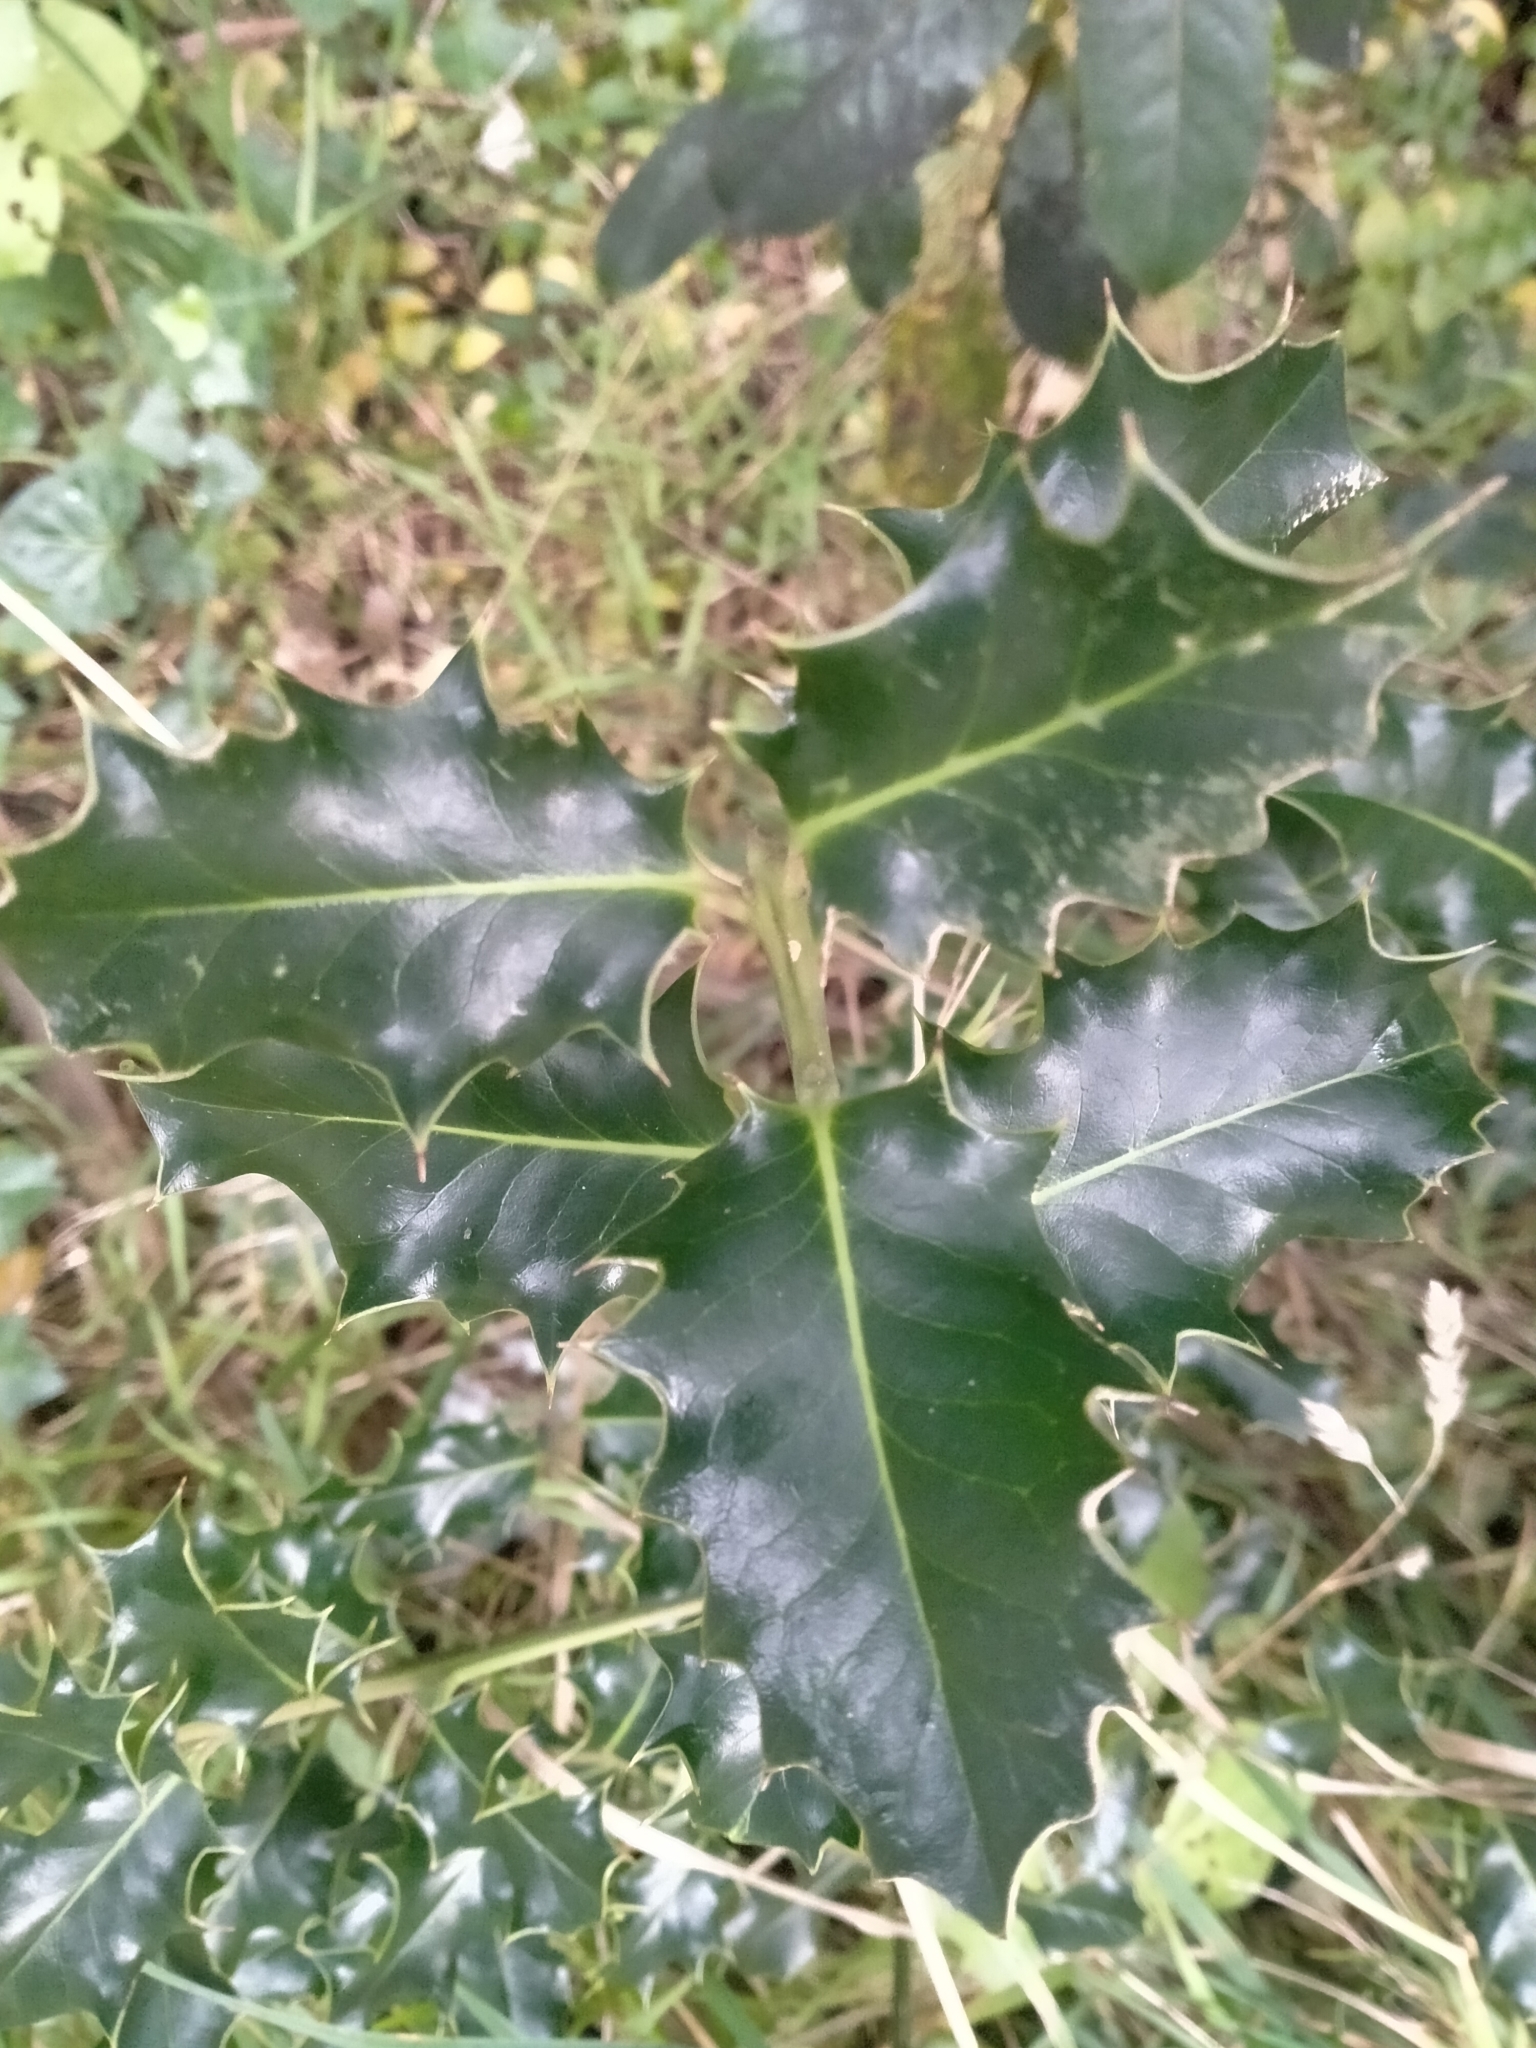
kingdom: Plantae
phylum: Tracheophyta
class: Magnoliopsida
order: Aquifoliales
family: Aquifoliaceae
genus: Ilex
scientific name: Ilex aquifolium
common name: English holly
